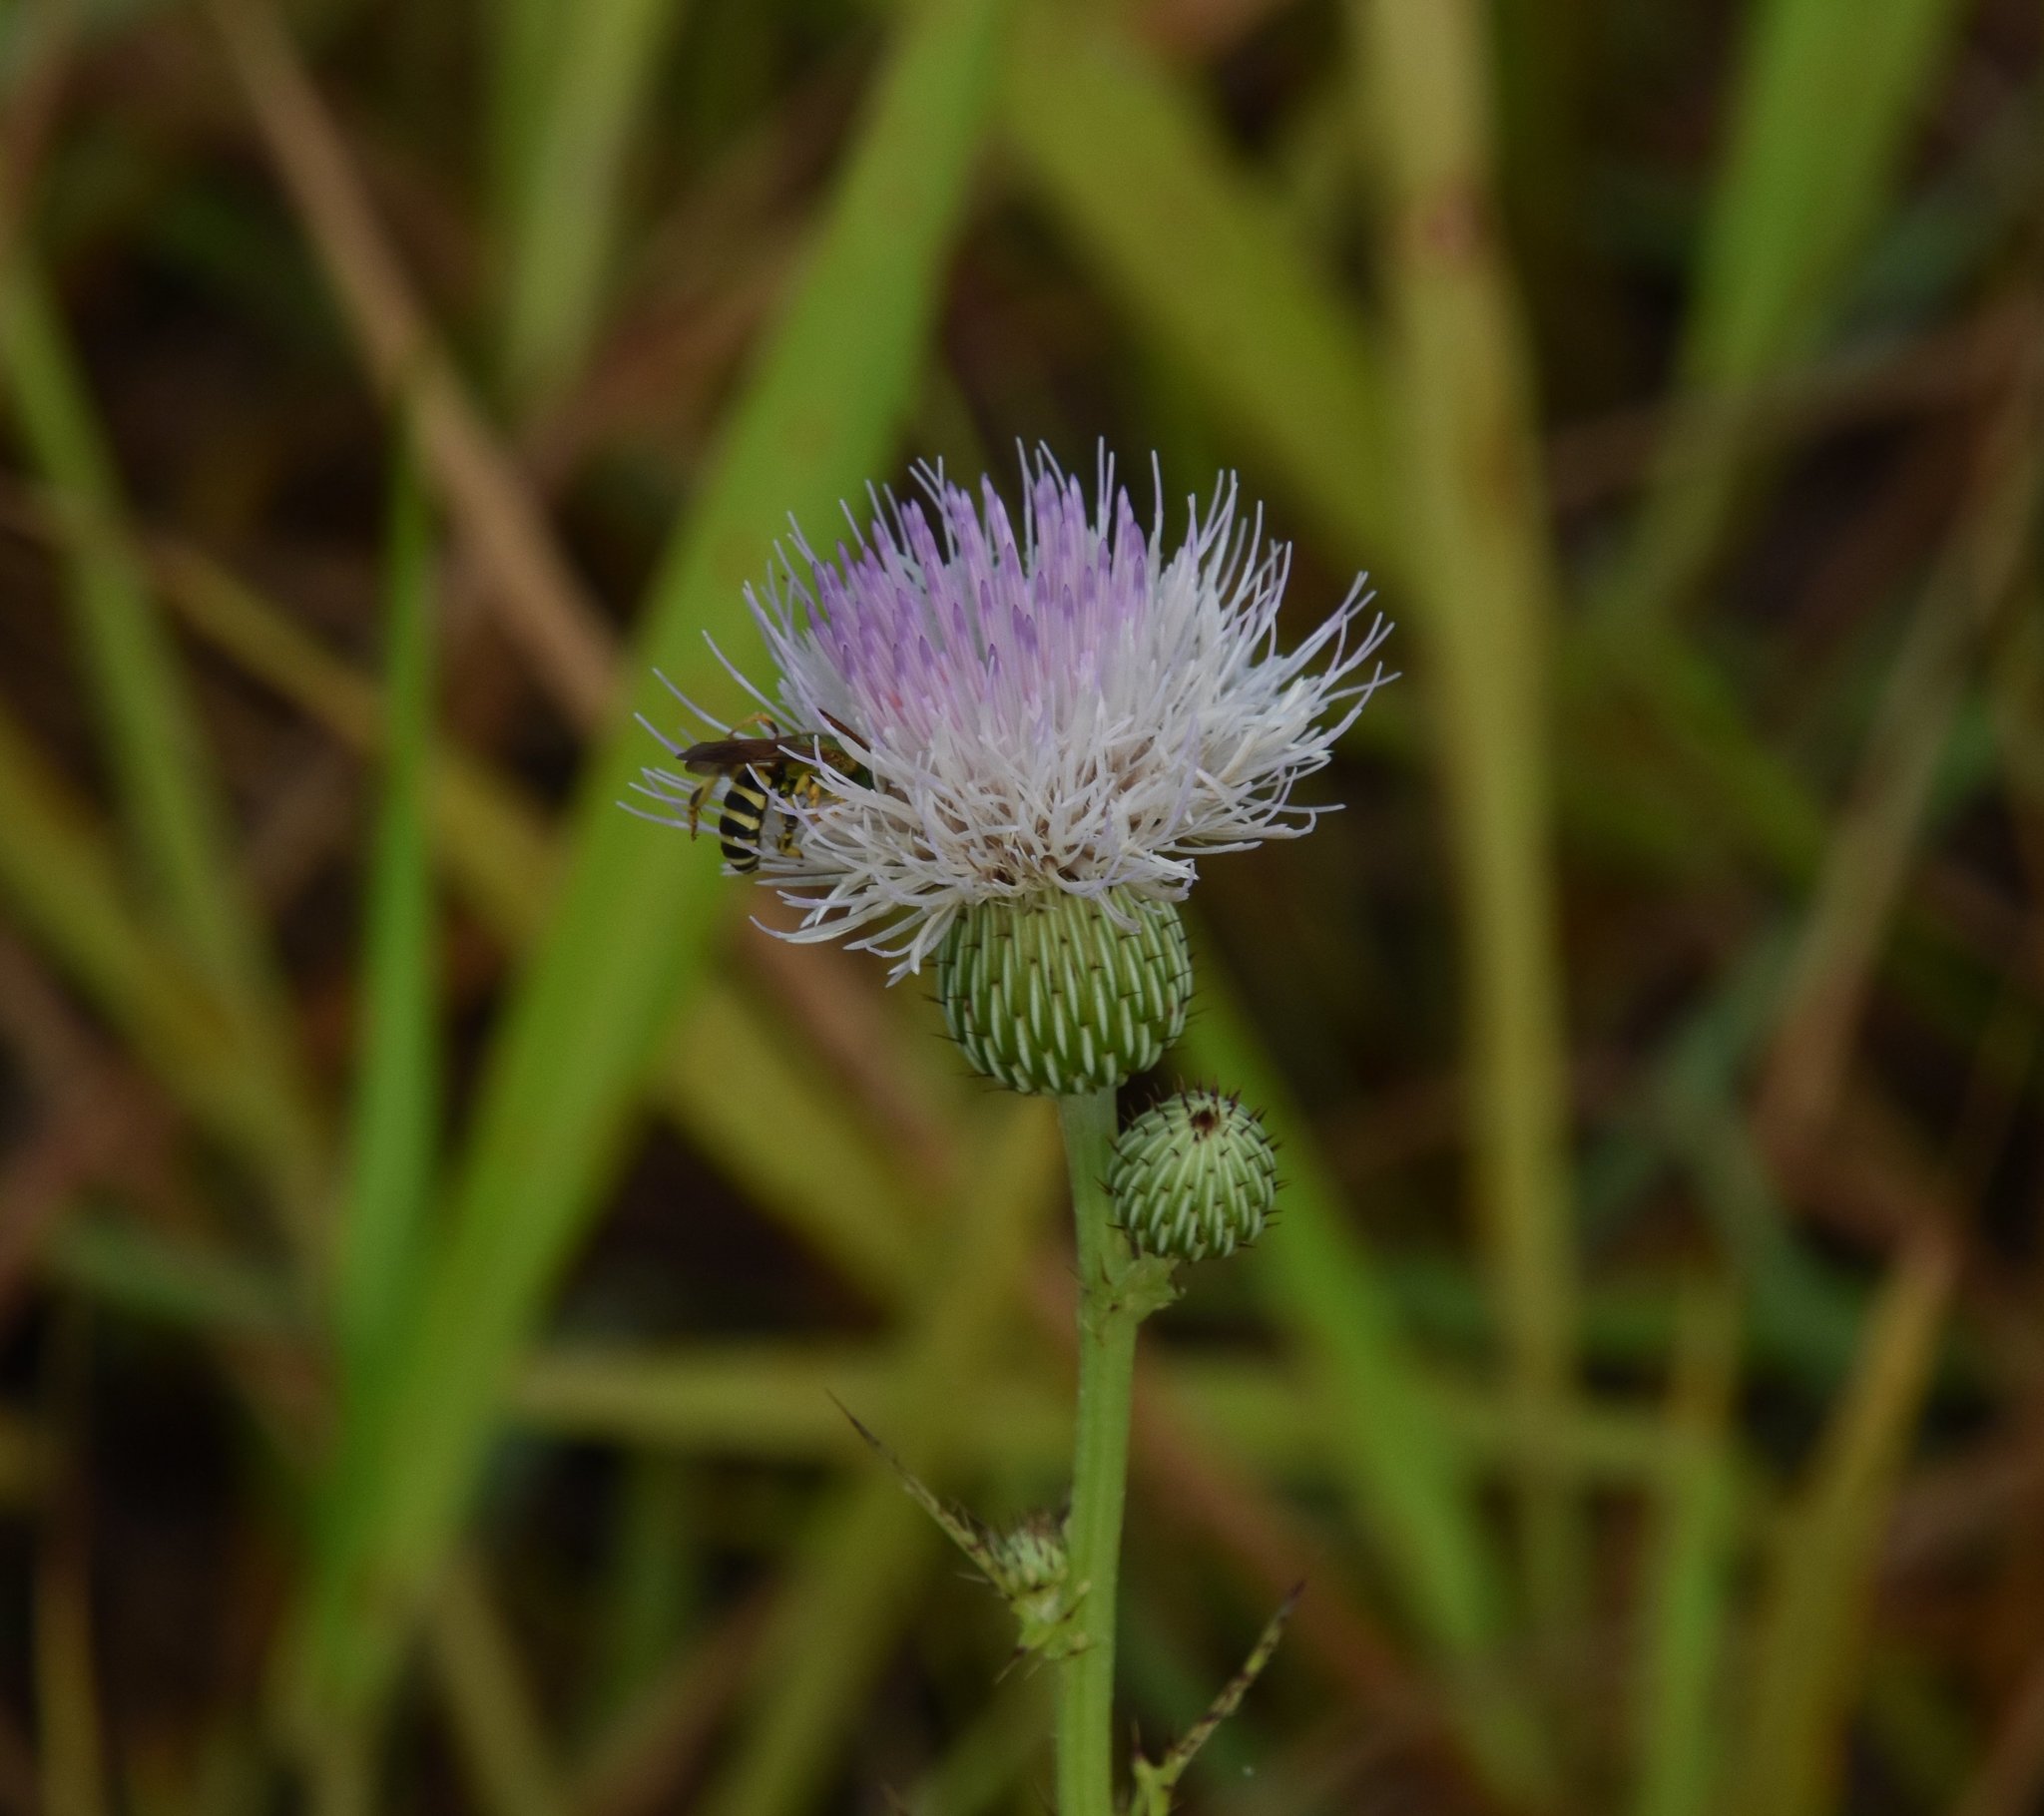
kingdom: Plantae
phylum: Tracheophyta
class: Magnoliopsida
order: Asterales
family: Asteraceae
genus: Cirsium
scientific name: Cirsium nuttalii
